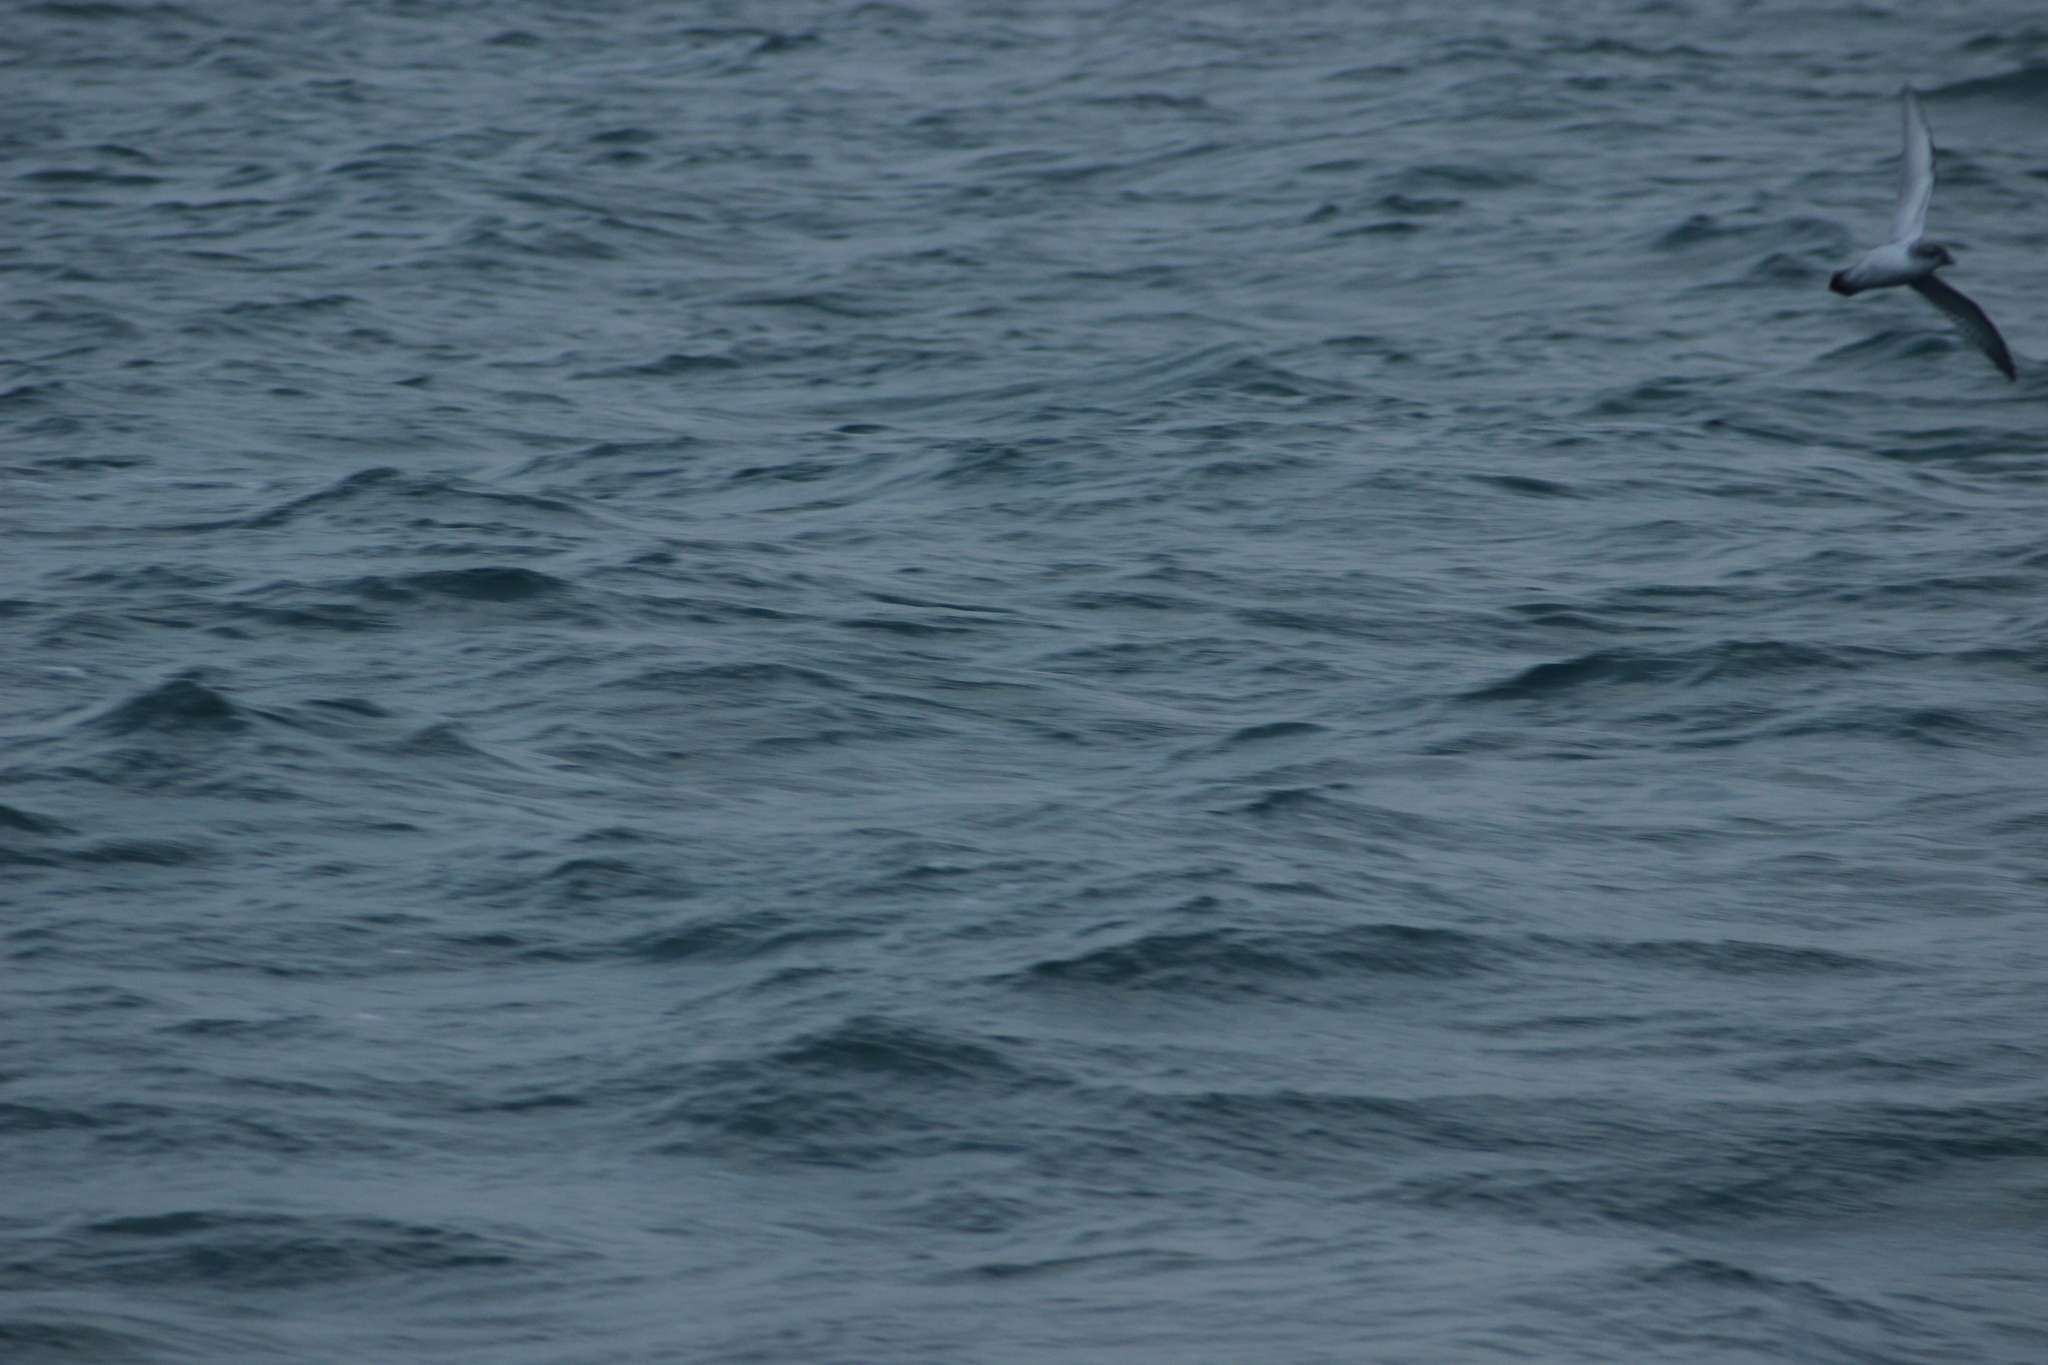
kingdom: Animalia
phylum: Chordata
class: Aves
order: Procellariiformes
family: Procellariidae
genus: Pachyptila
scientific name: Pachyptila turtur
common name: Fairy prion
